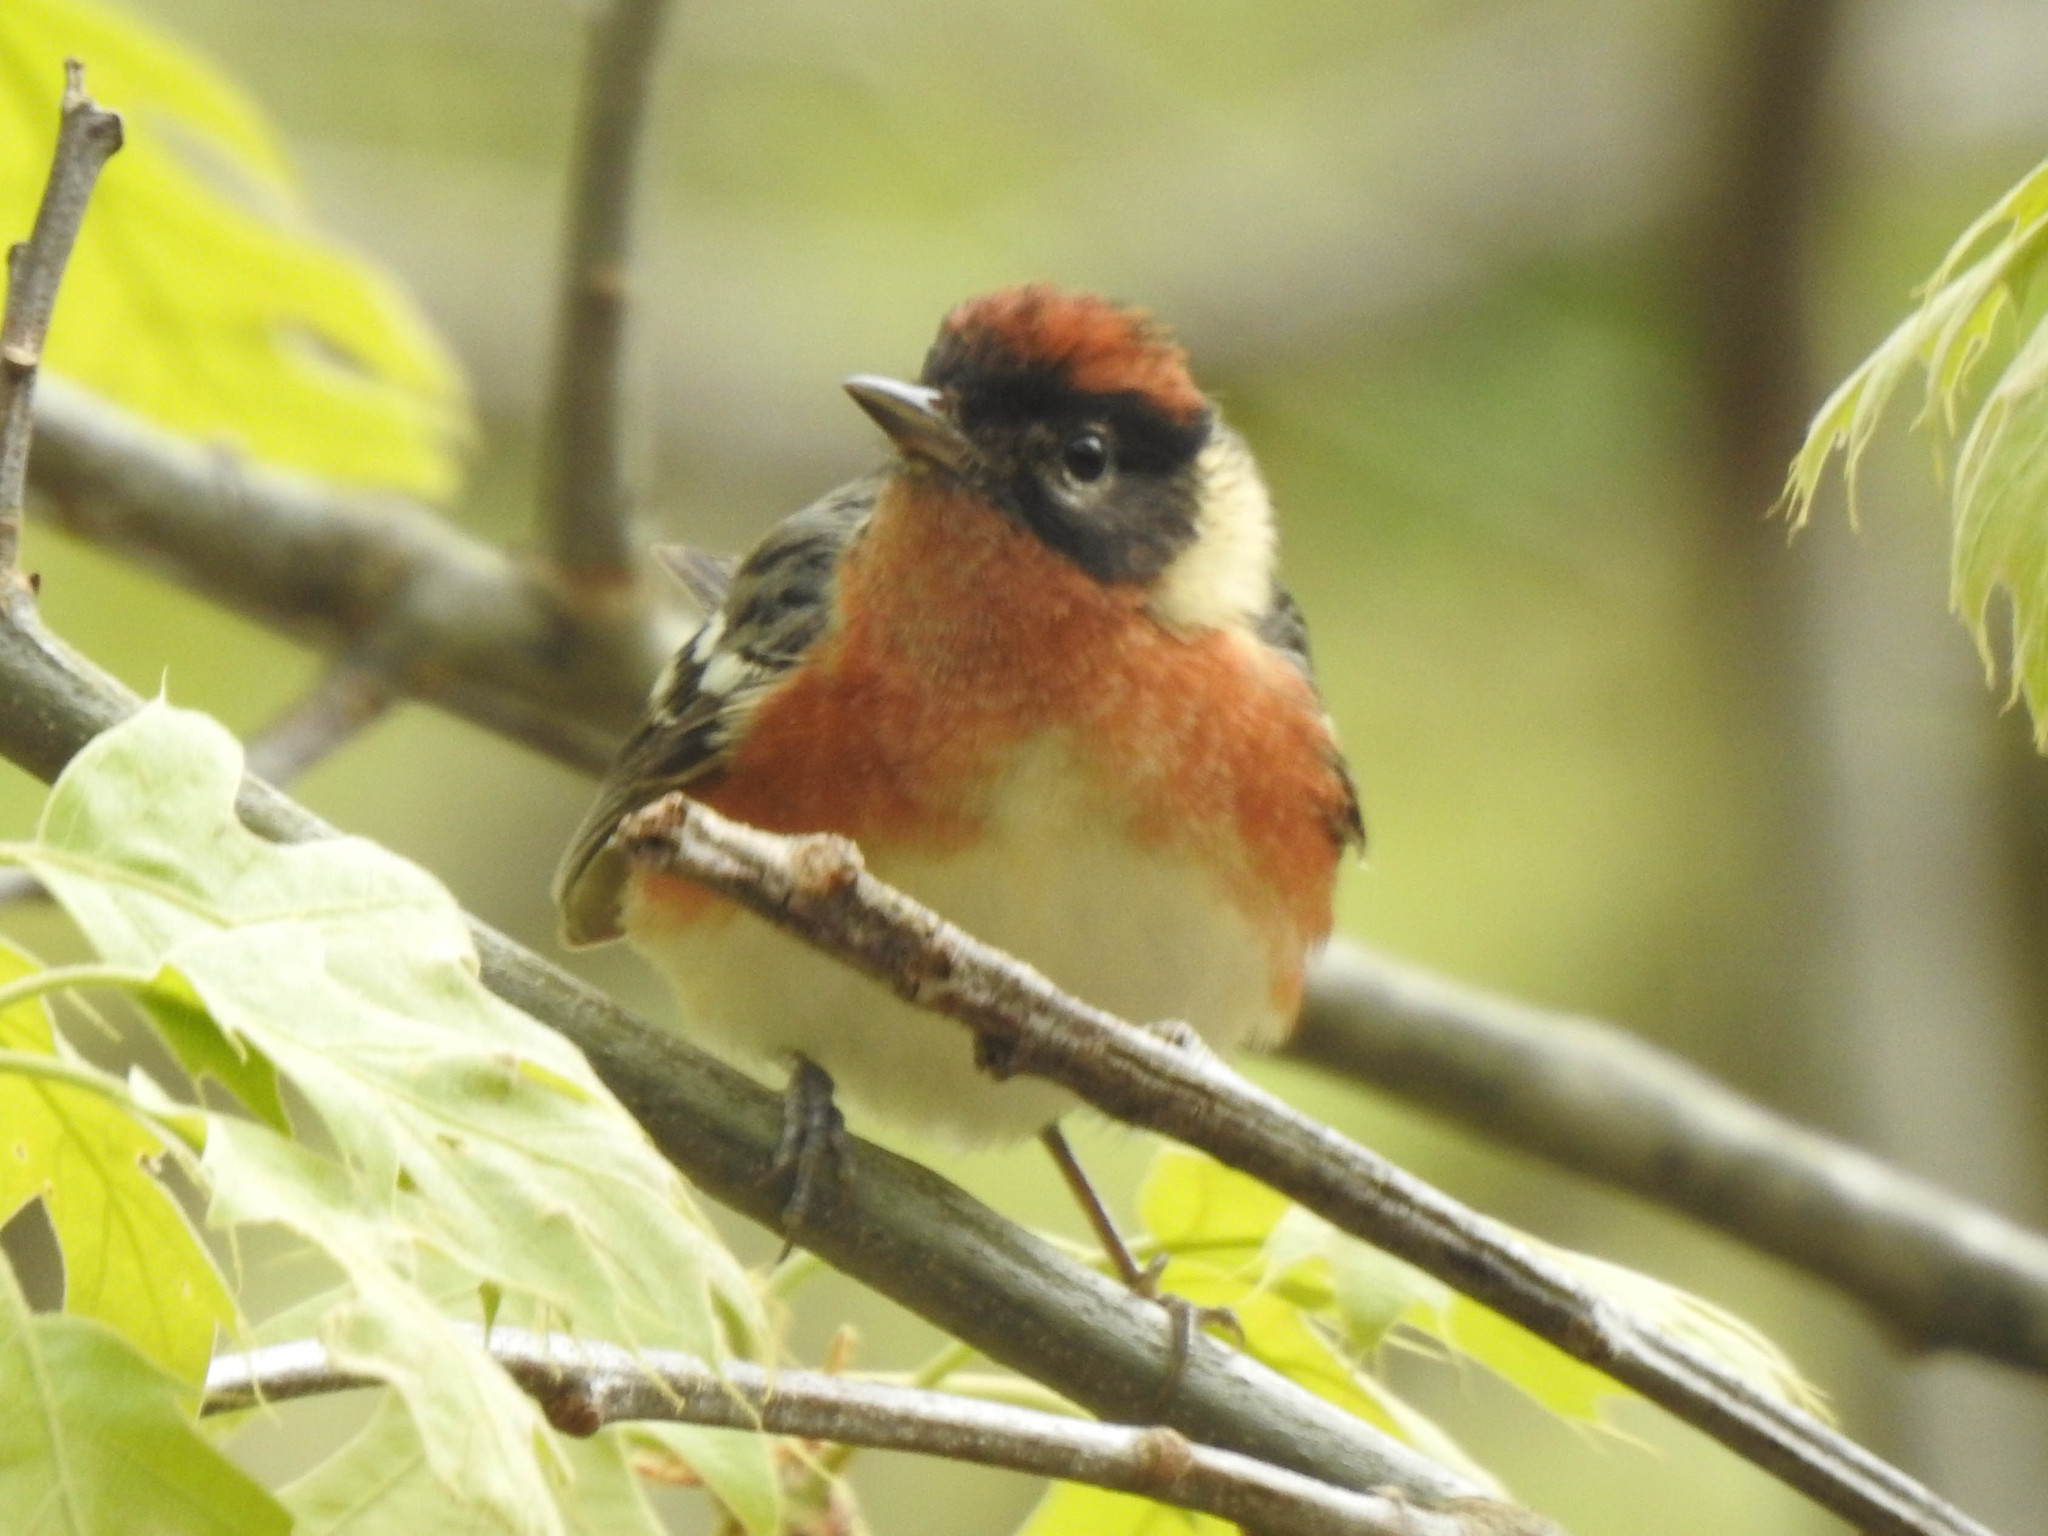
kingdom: Animalia
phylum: Chordata
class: Aves
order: Passeriformes
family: Parulidae
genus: Setophaga
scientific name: Setophaga castanea
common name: Bay-breasted warbler
